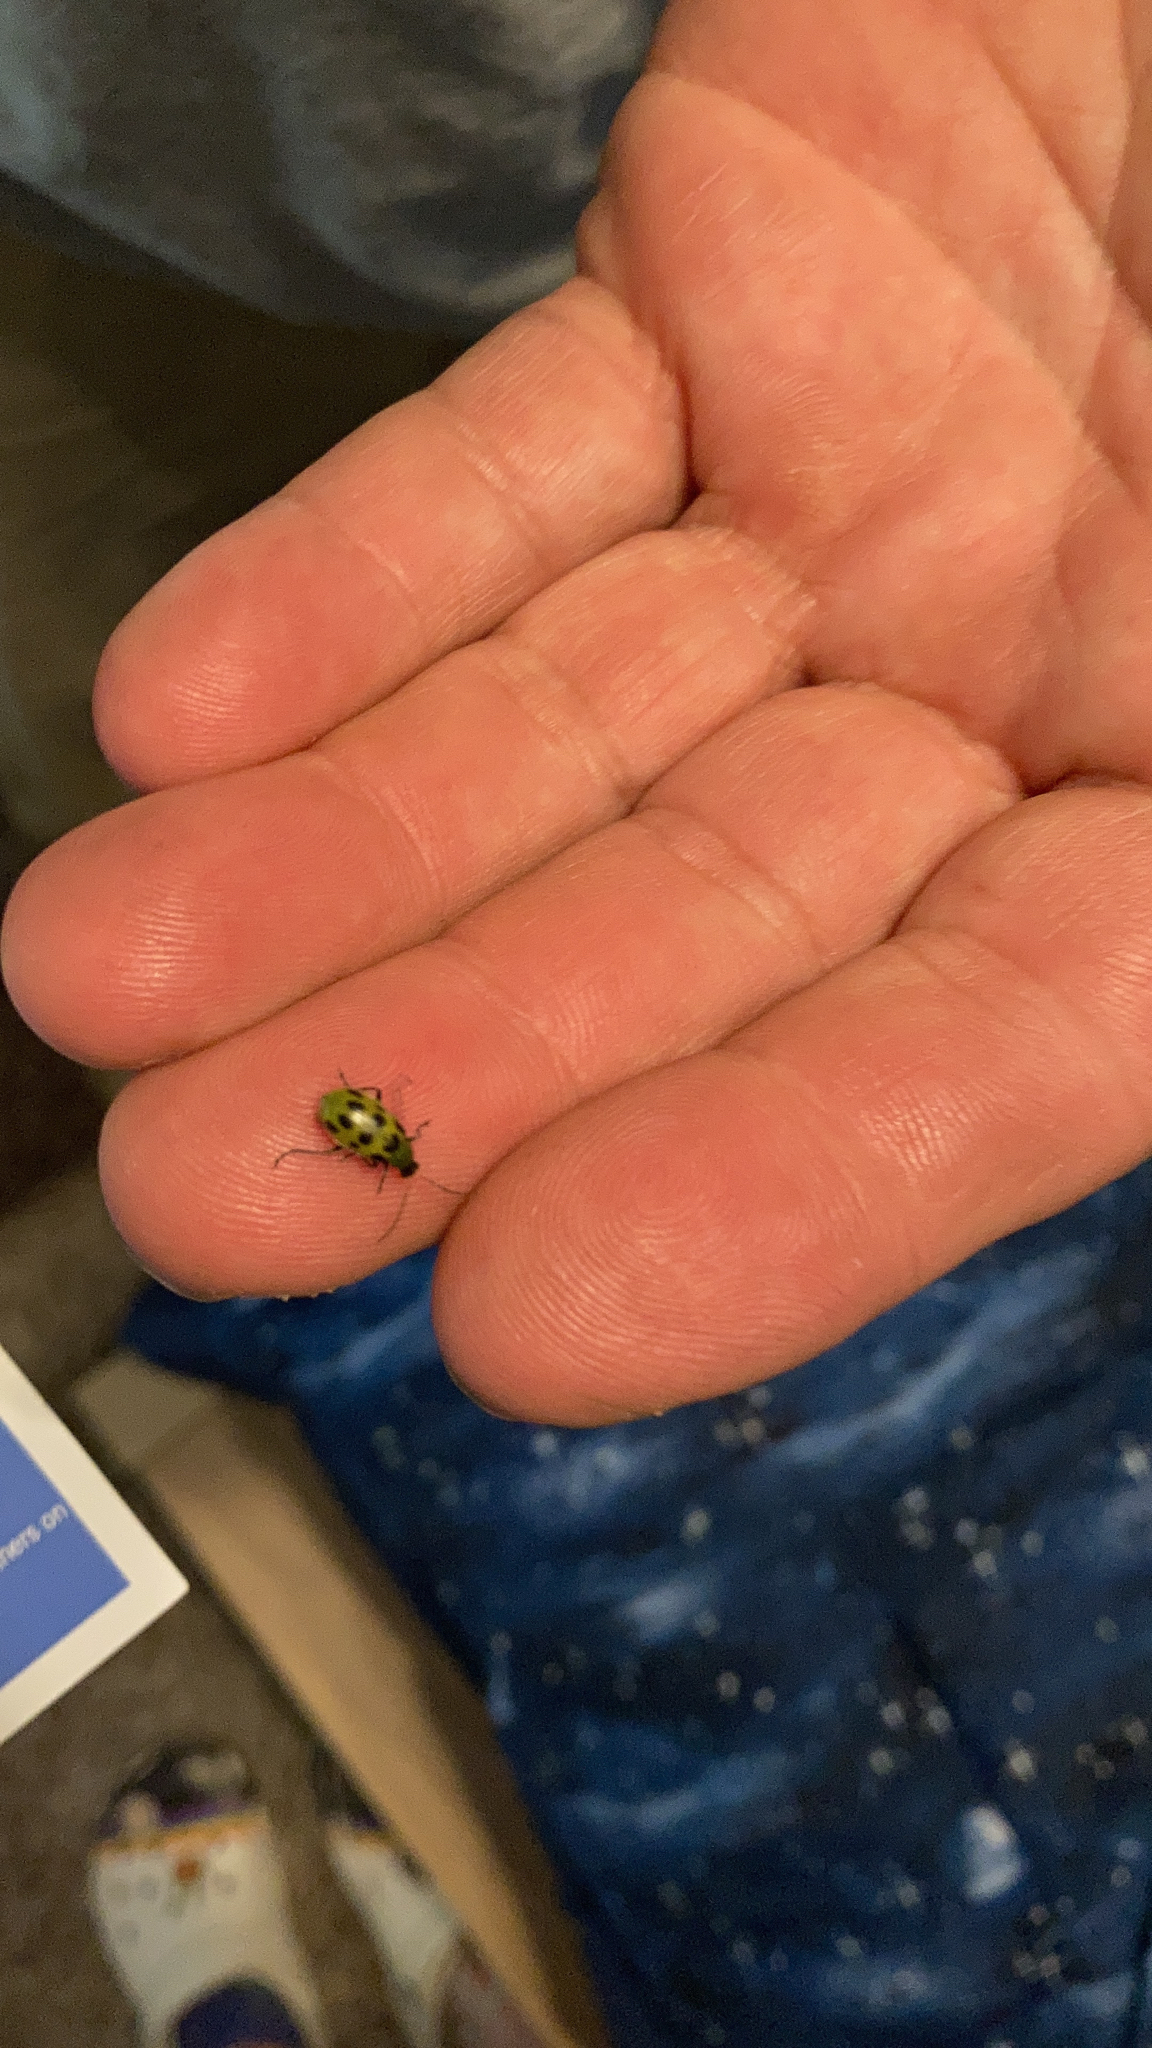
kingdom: Animalia
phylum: Arthropoda
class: Insecta
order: Coleoptera
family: Chrysomelidae
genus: Diabrotica
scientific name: Diabrotica undecimpunctata
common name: Spotted cucumber beetle
